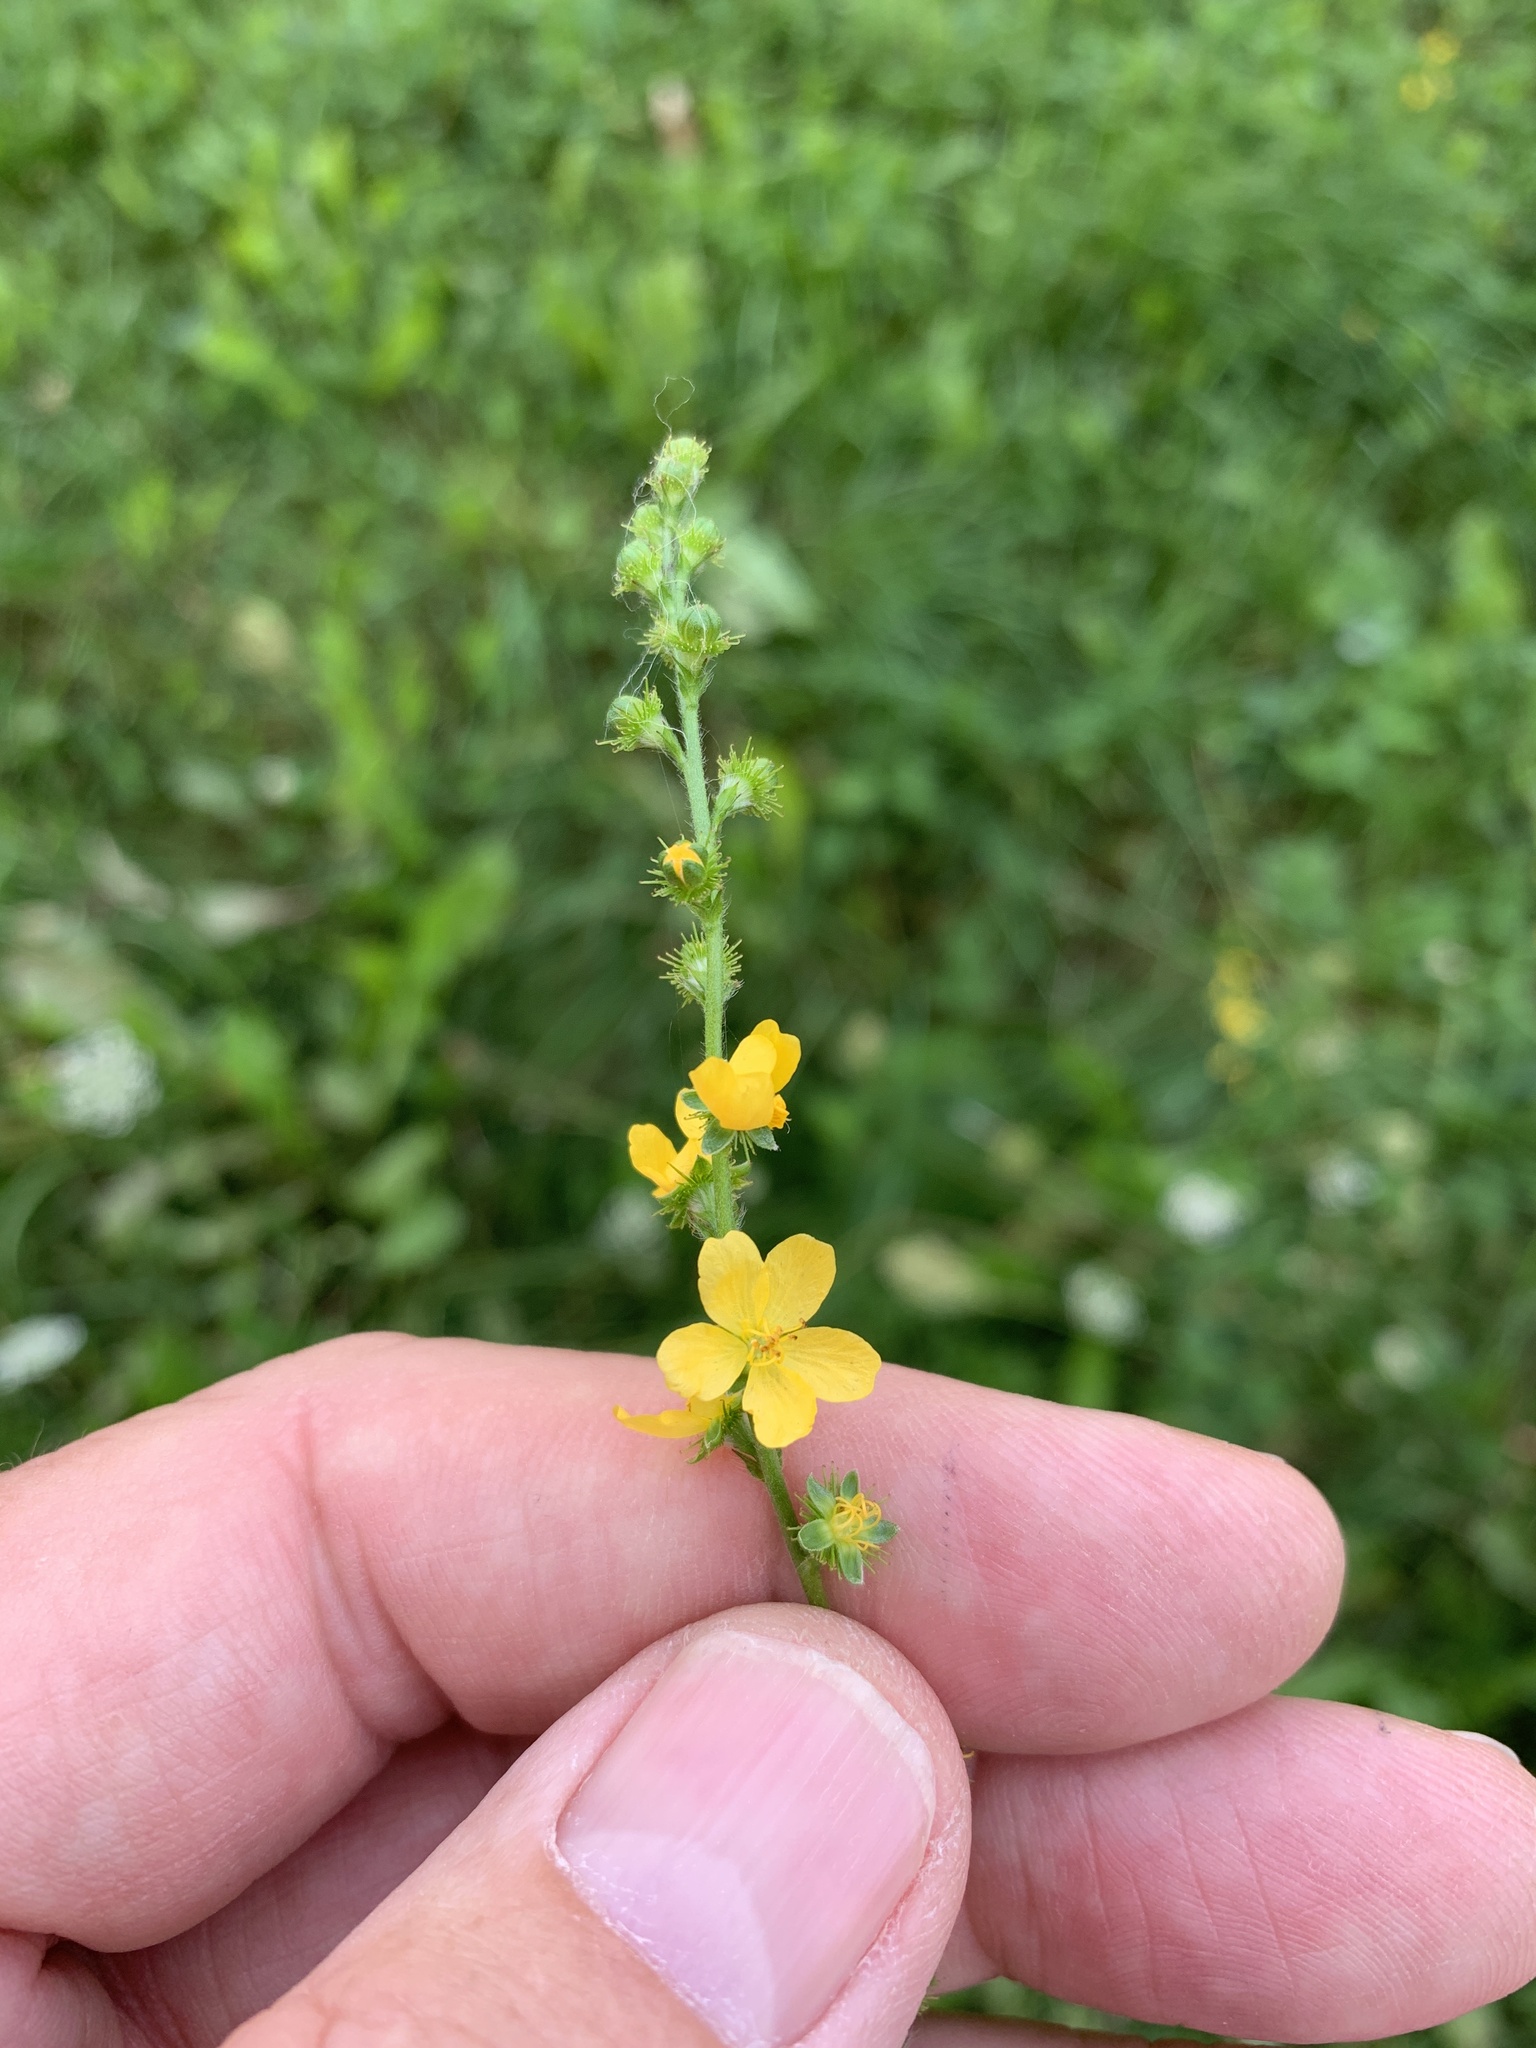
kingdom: Plantae
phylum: Tracheophyta
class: Magnoliopsida
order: Rosales
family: Rosaceae
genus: Agrimonia
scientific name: Agrimonia eupatoria
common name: Agrimony
